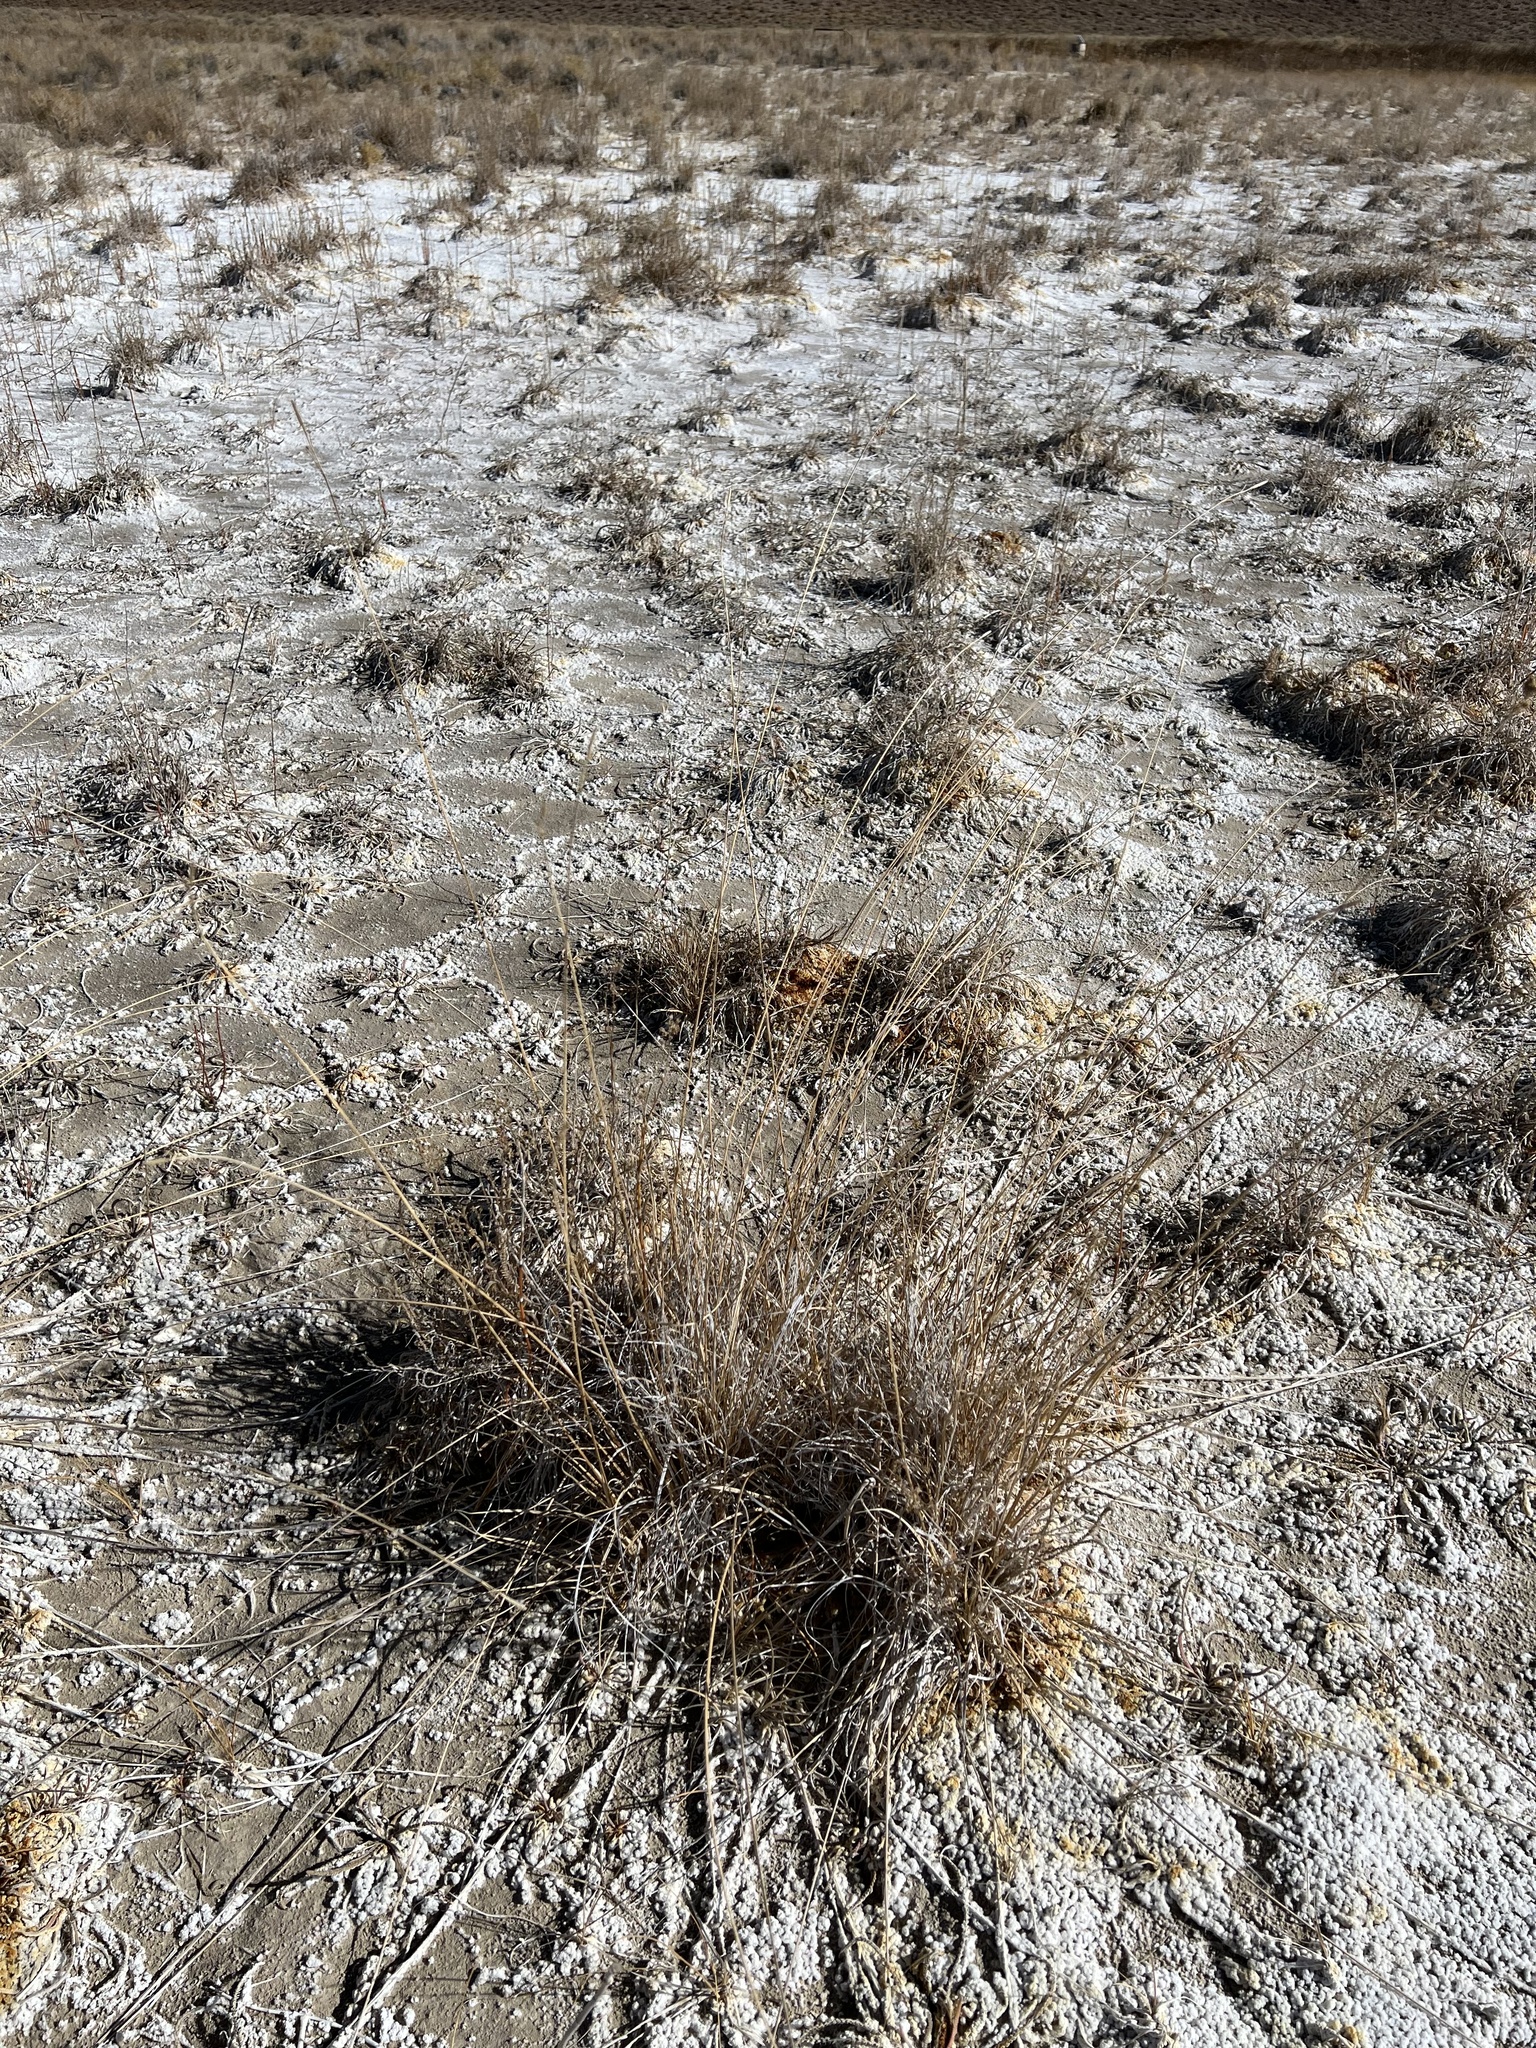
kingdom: Plantae
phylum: Tracheophyta
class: Liliopsida
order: Poales
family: Cyperaceae
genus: Carex
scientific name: Carex holmgreniorum
